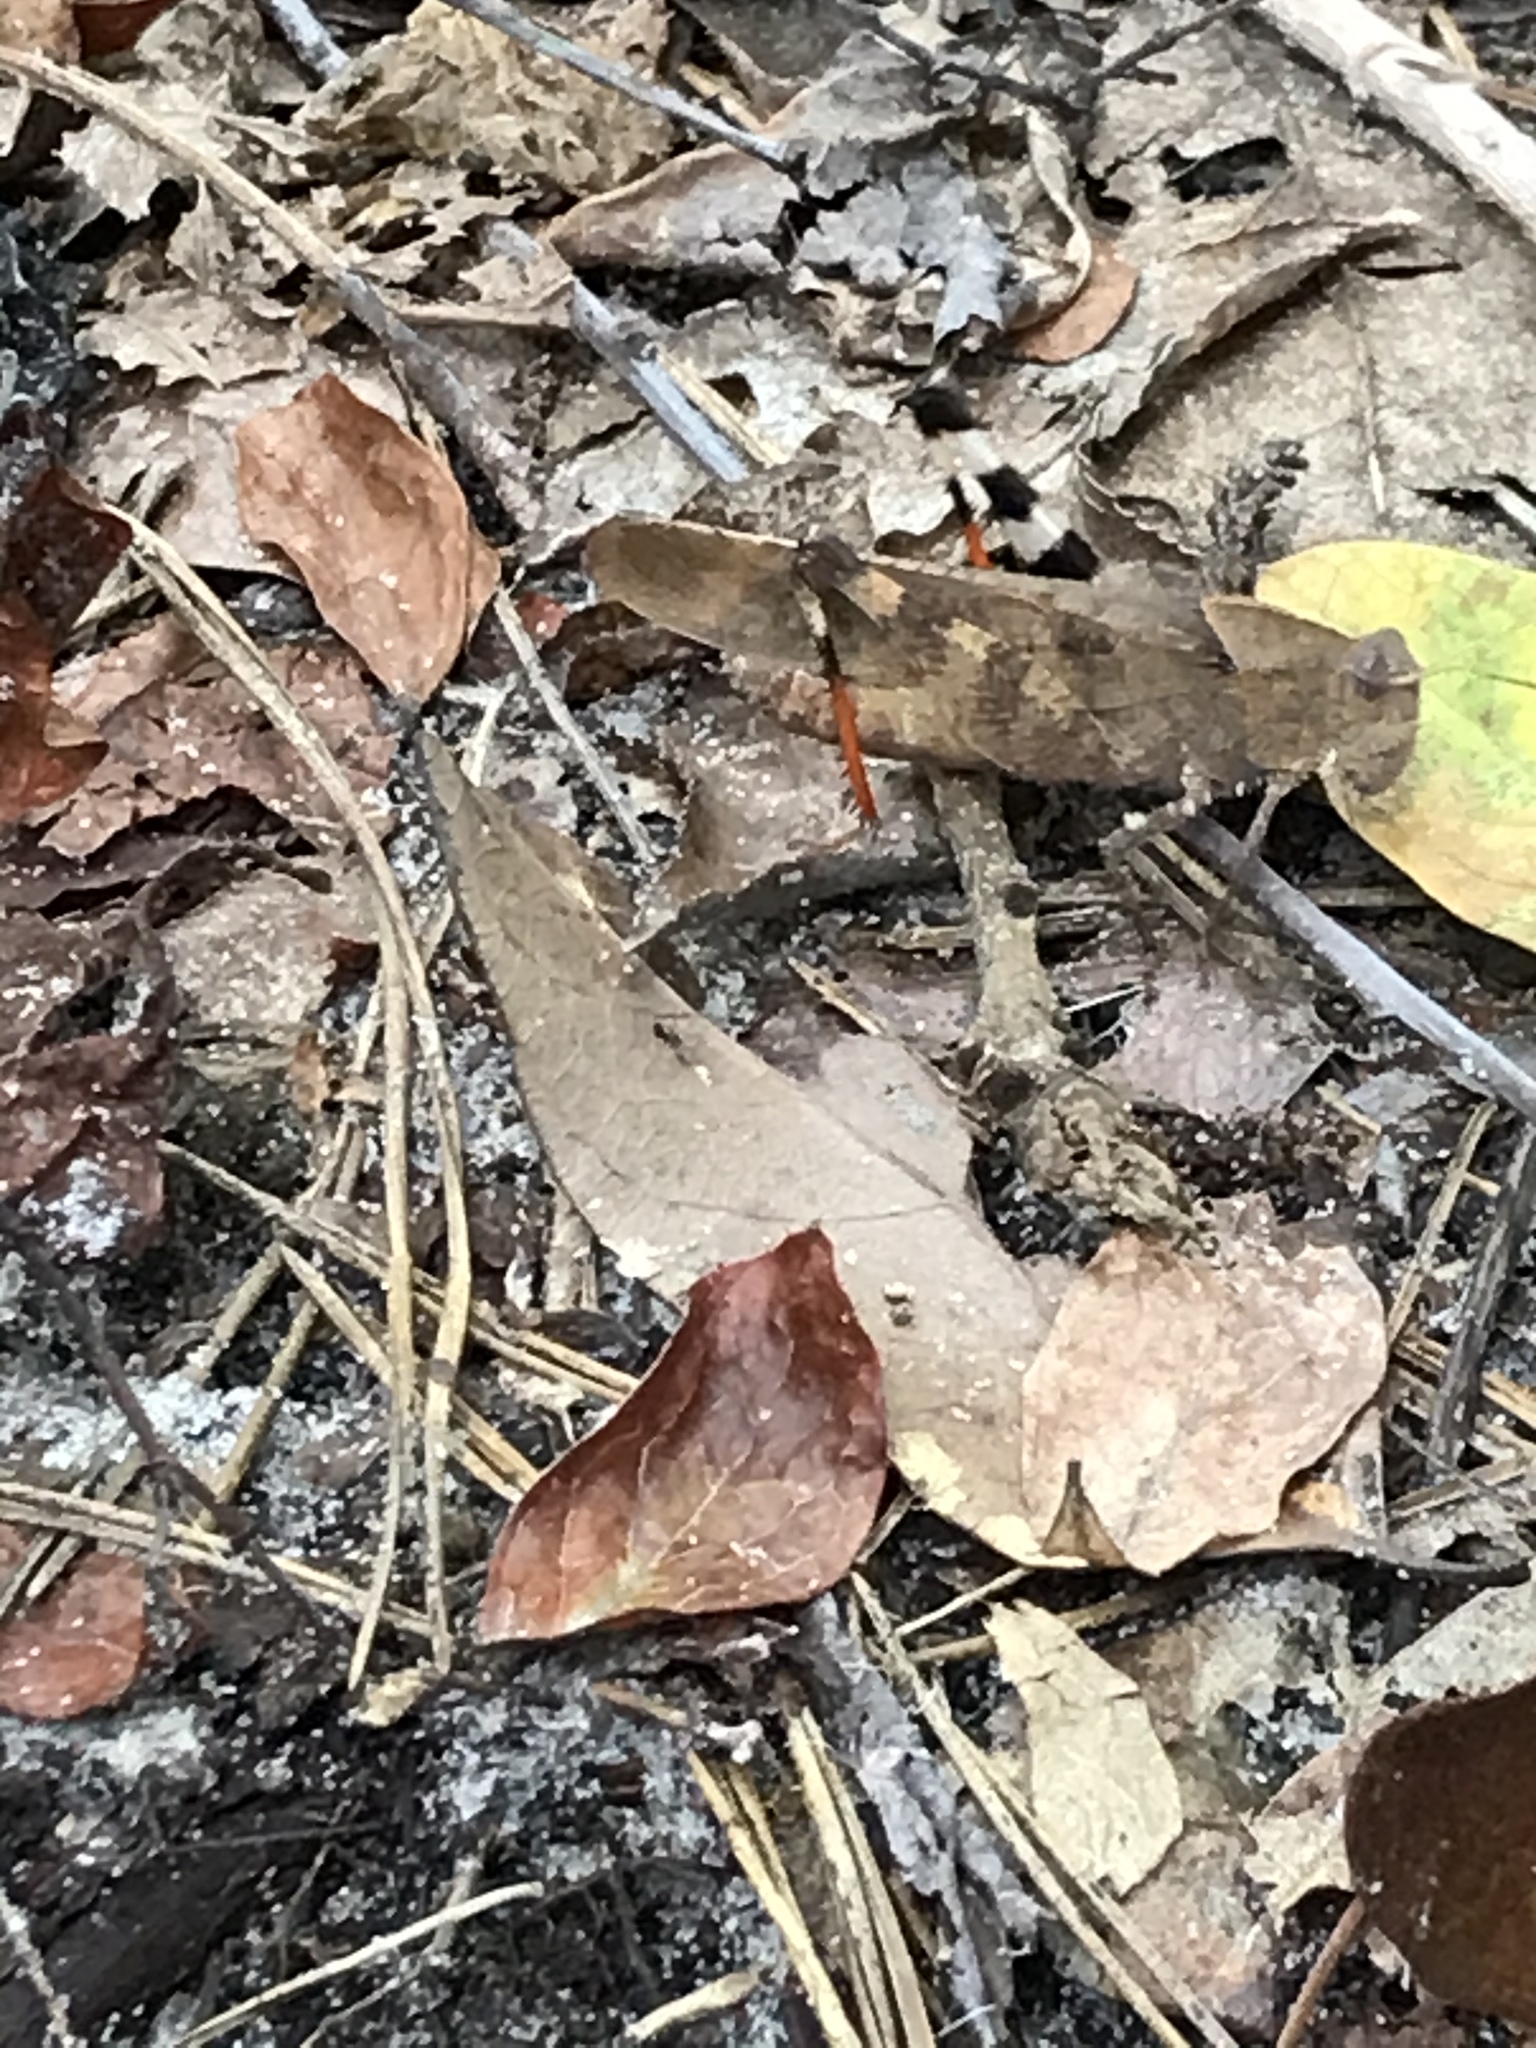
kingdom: Animalia
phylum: Arthropoda
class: Insecta
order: Orthoptera
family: Acrididae
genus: Spharagemon
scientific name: Spharagemon bolli
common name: Boll's grasshopper
